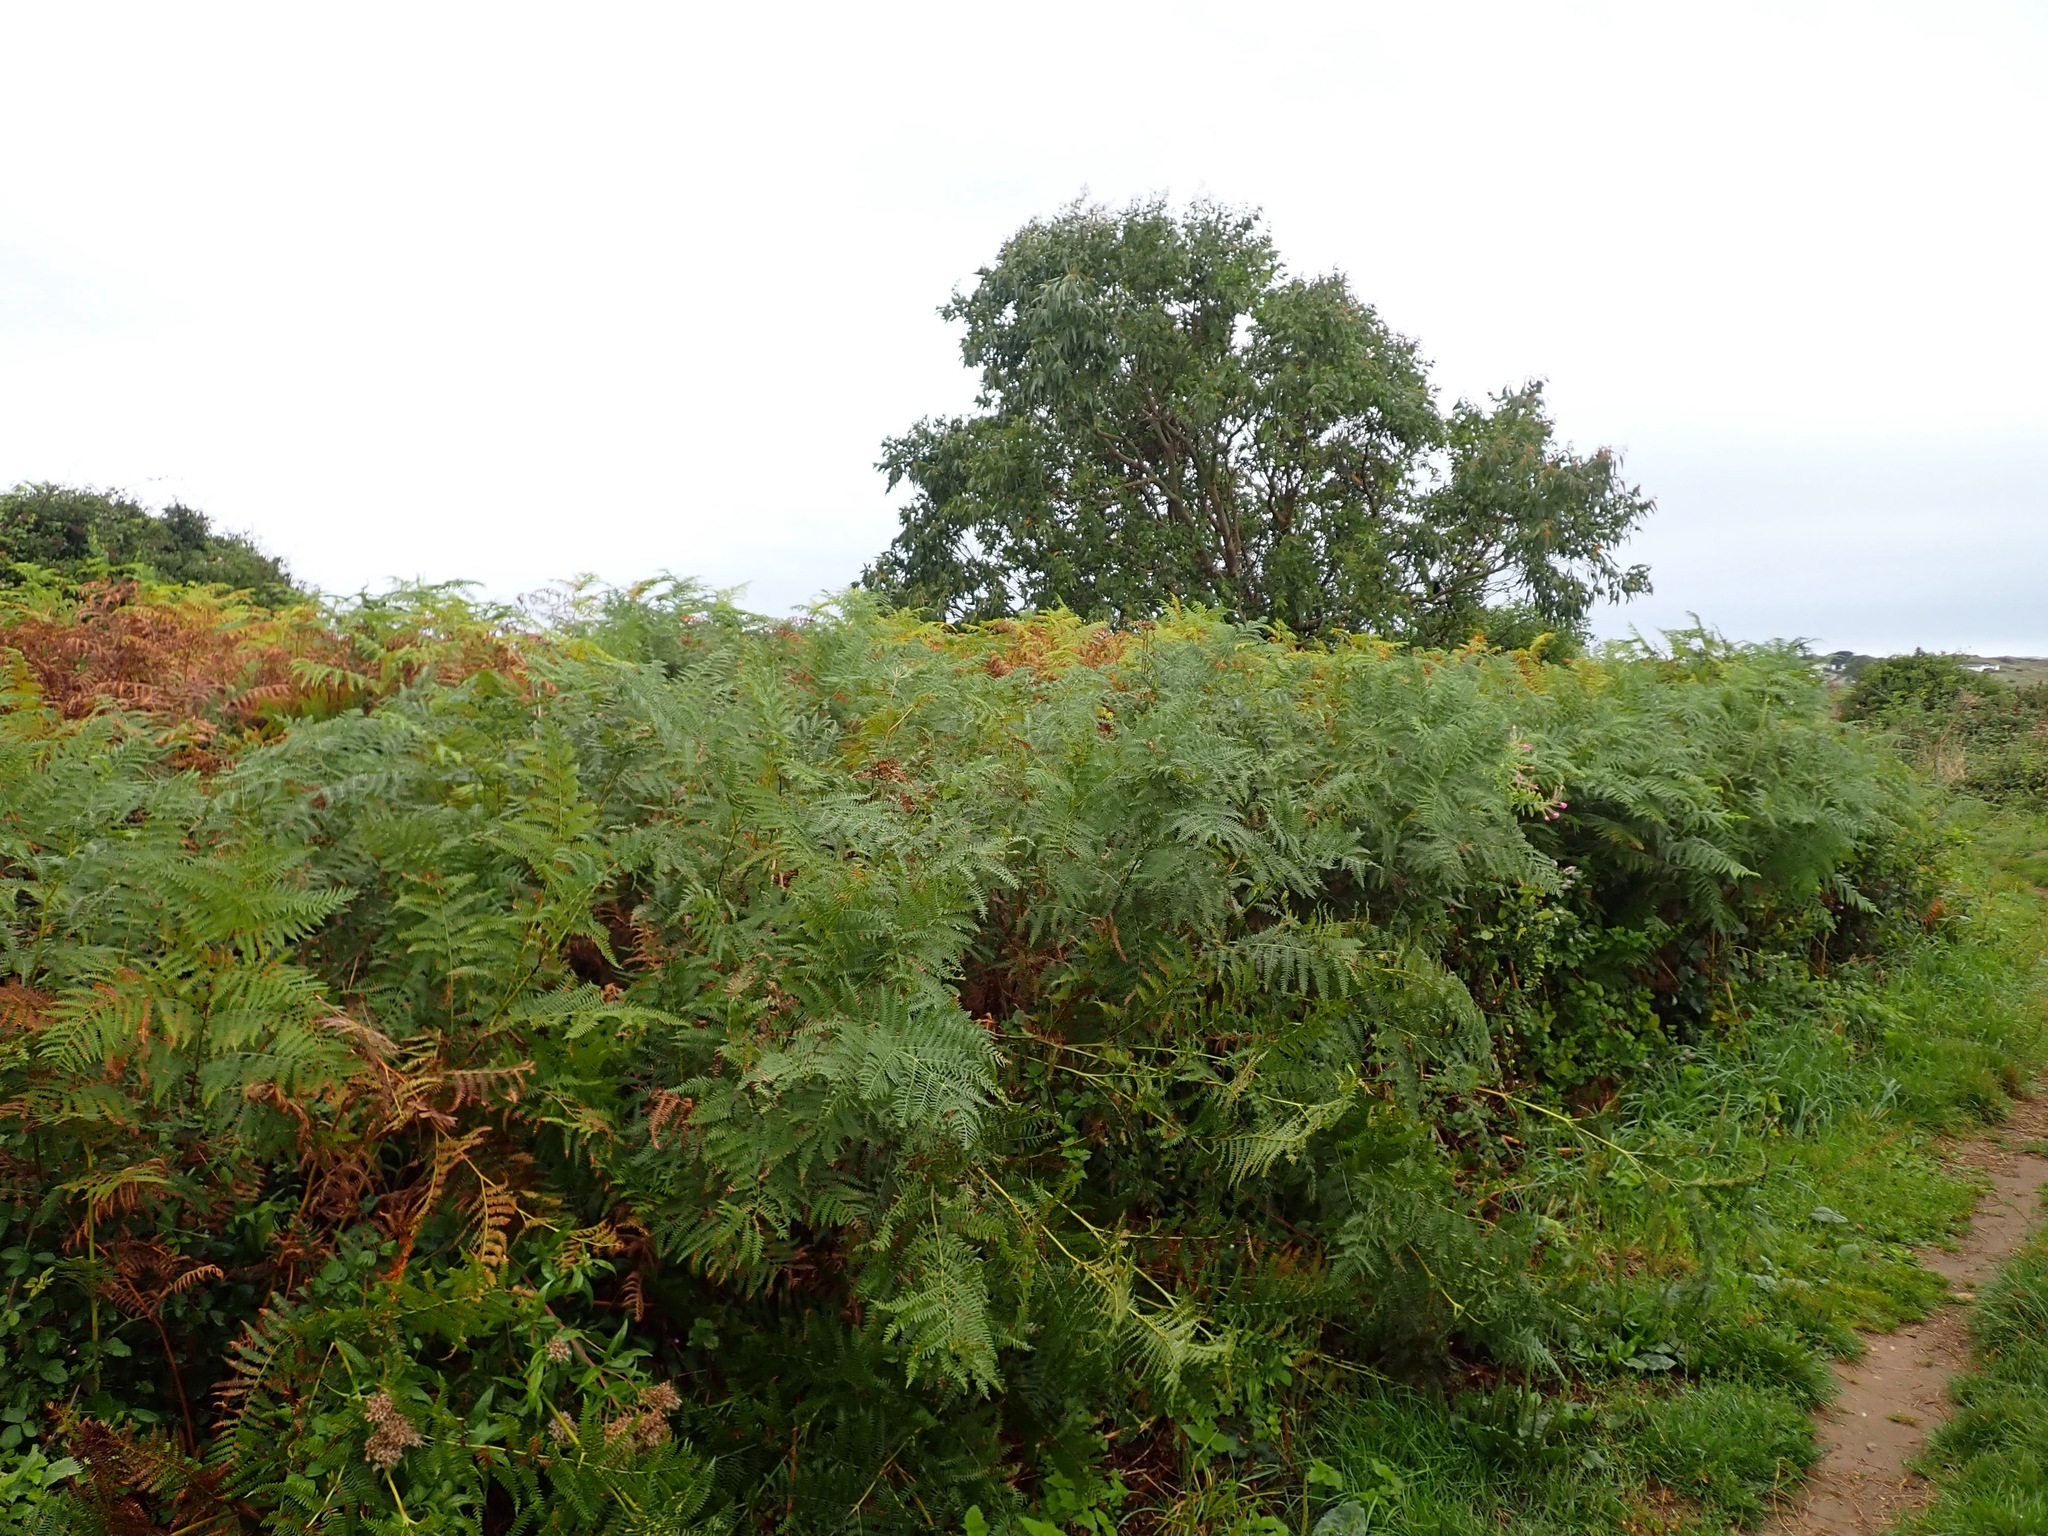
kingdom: Plantae
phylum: Tracheophyta
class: Polypodiopsida
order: Polypodiales
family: Dennstaedtiaceae
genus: Pteridium
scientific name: Pteridium aquilinum
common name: Bracken
